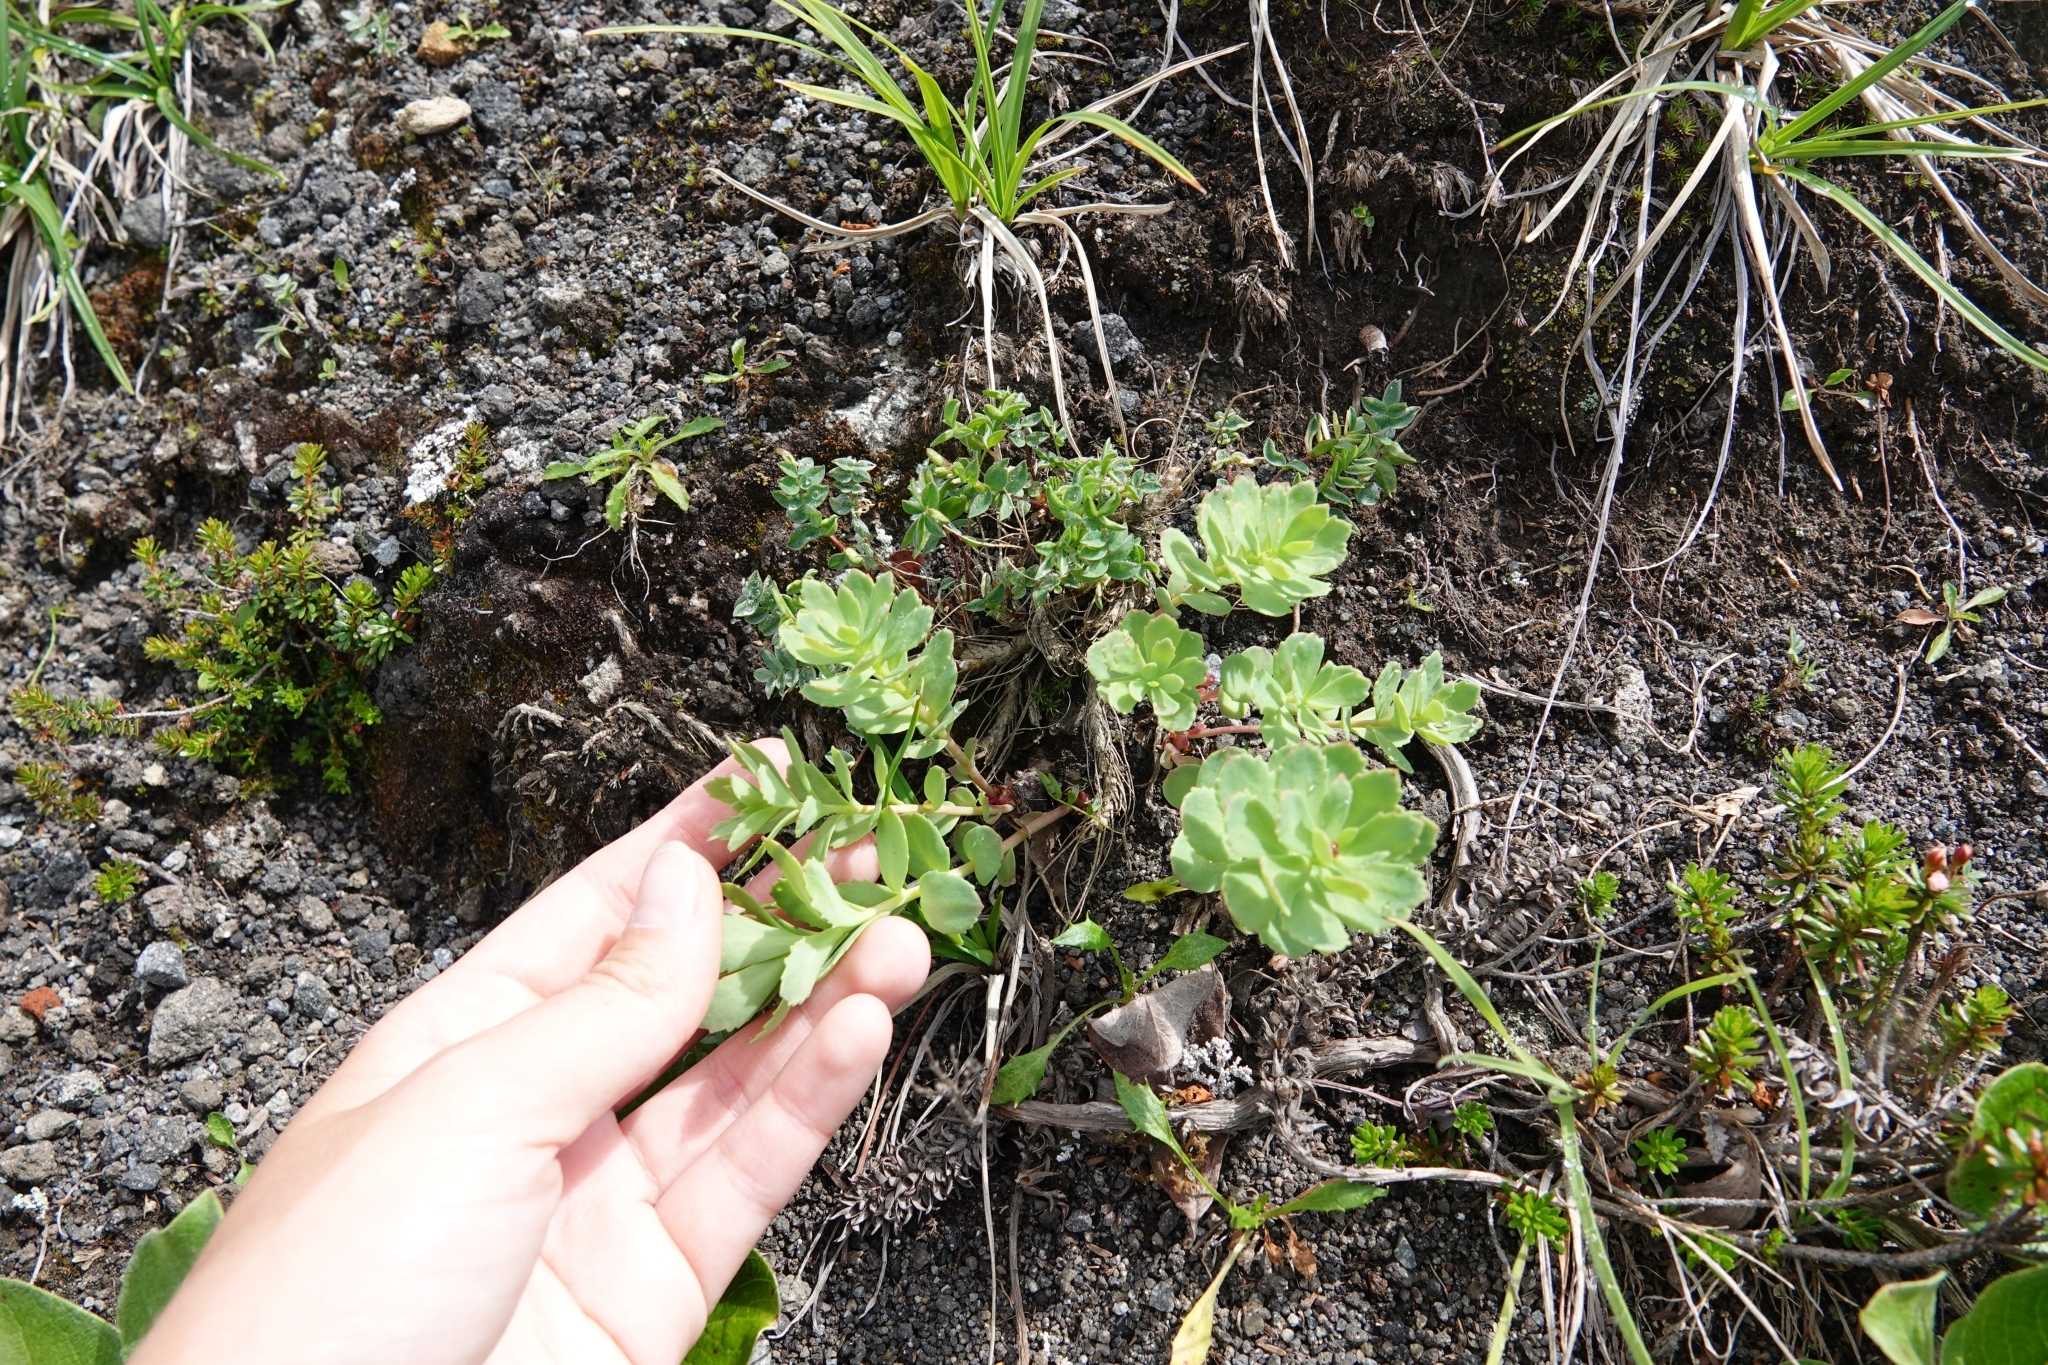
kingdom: Plantae
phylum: Tracheophyta
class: Magnoliopsida
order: Saxifragales
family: Crassulaceae
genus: Rhodiola
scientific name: Rhodiola integrifolia
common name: Western roseroot
